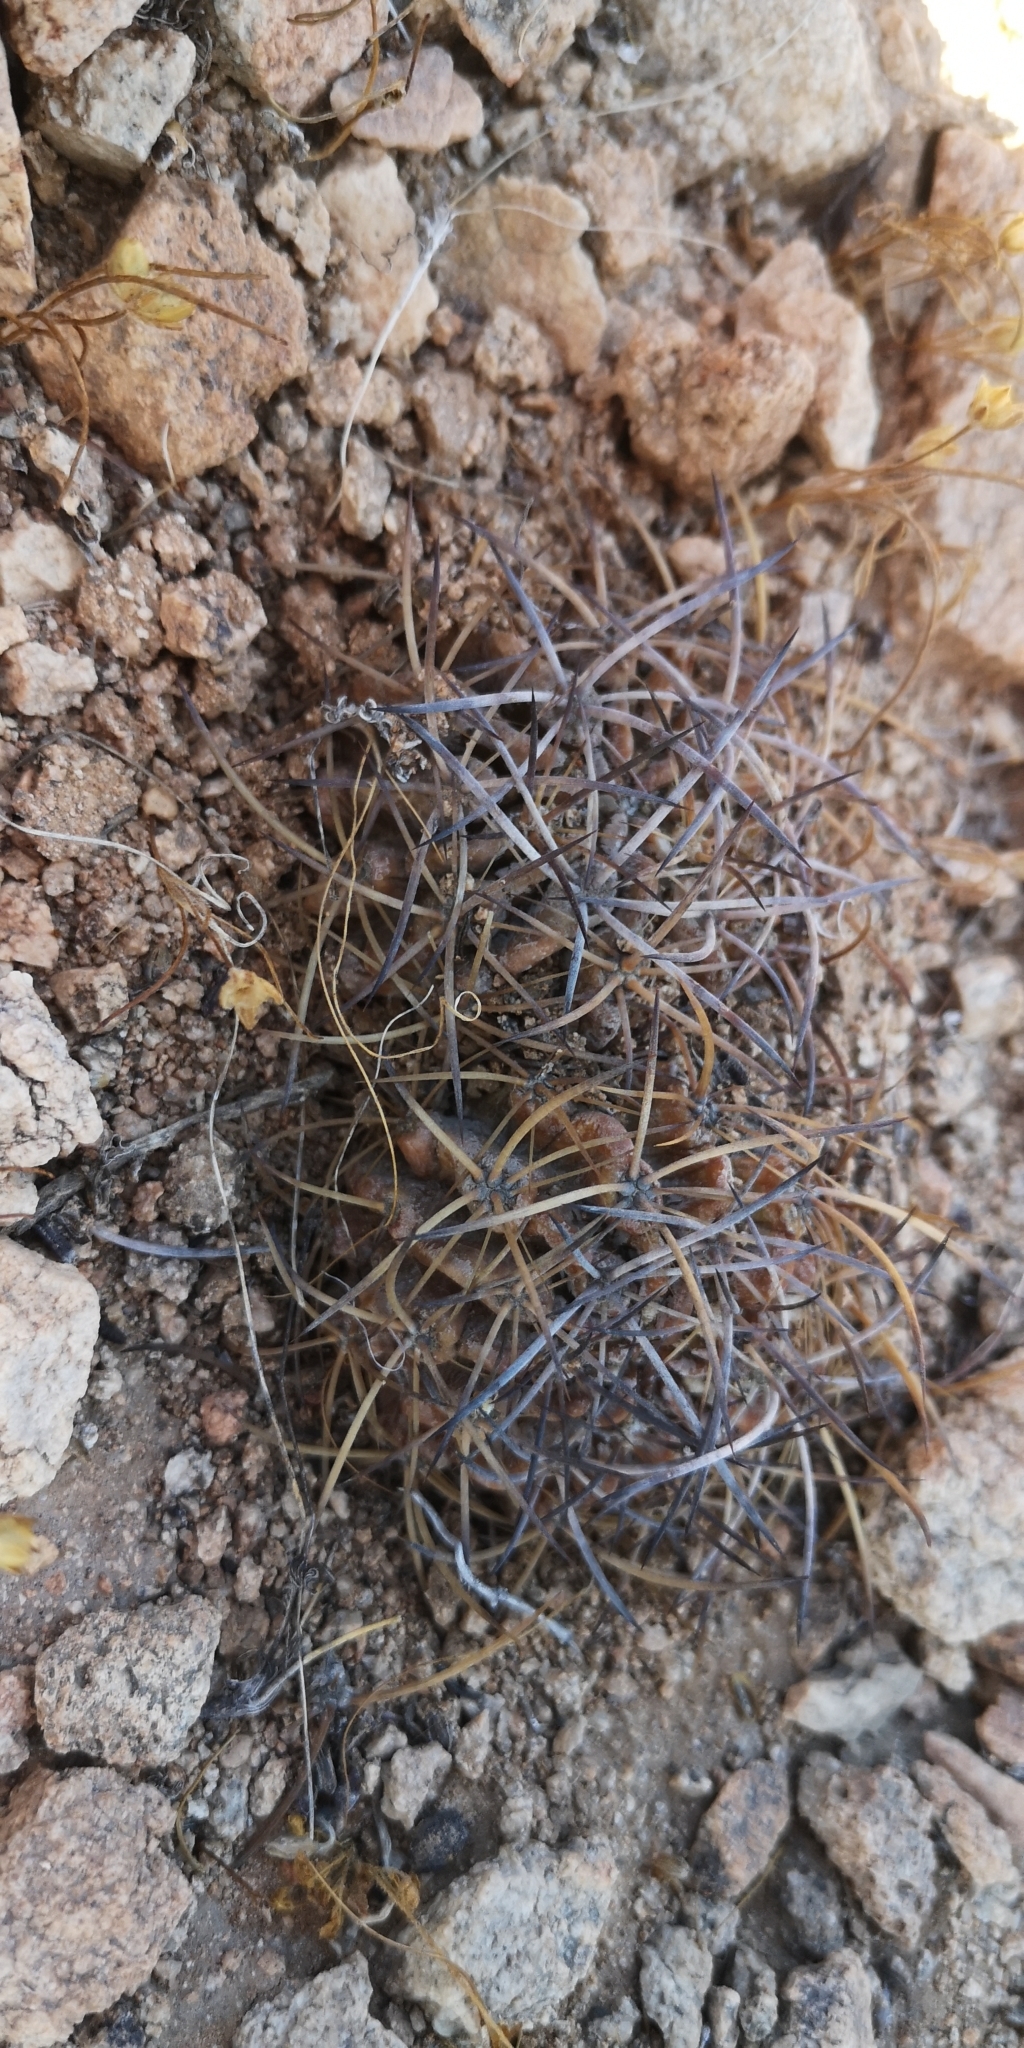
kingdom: Plantae
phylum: Tracheophyta
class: Magnoliopsida
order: Caryophyllales
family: Cactaceae
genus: Eriosyce
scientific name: Eriosyce crispa
